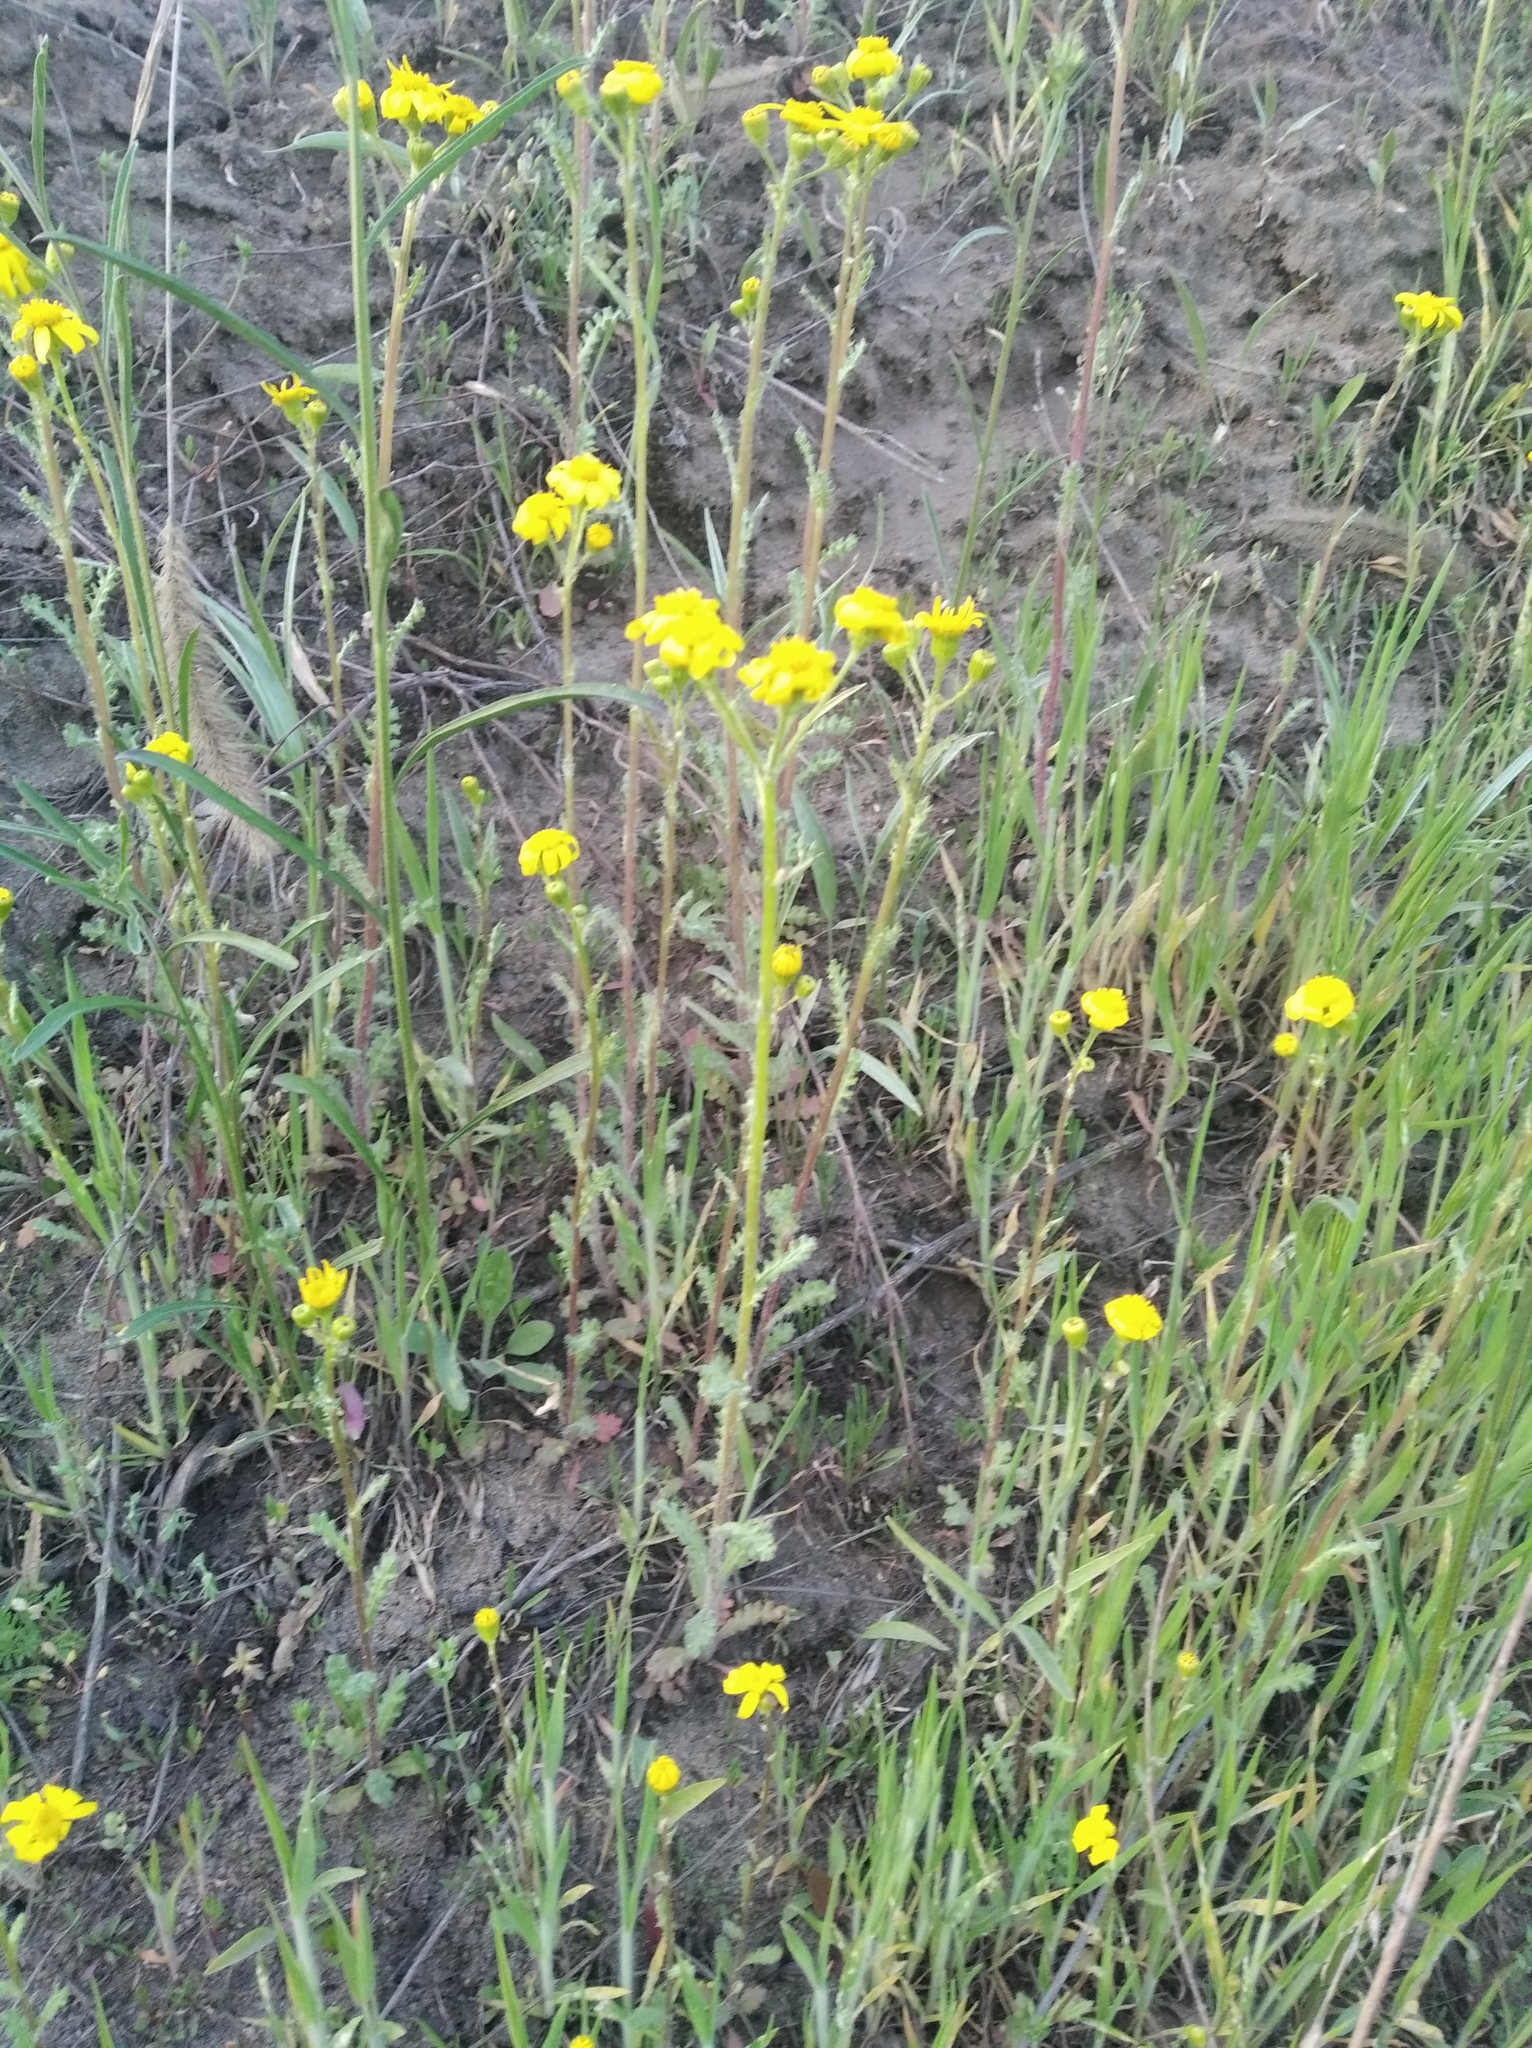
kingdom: Plantae
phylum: Tracheophyta
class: Magnoliopsida
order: Asterales
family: Asteraceae
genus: Senecio
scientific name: Senecio vernalis
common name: Eastern groundsel
